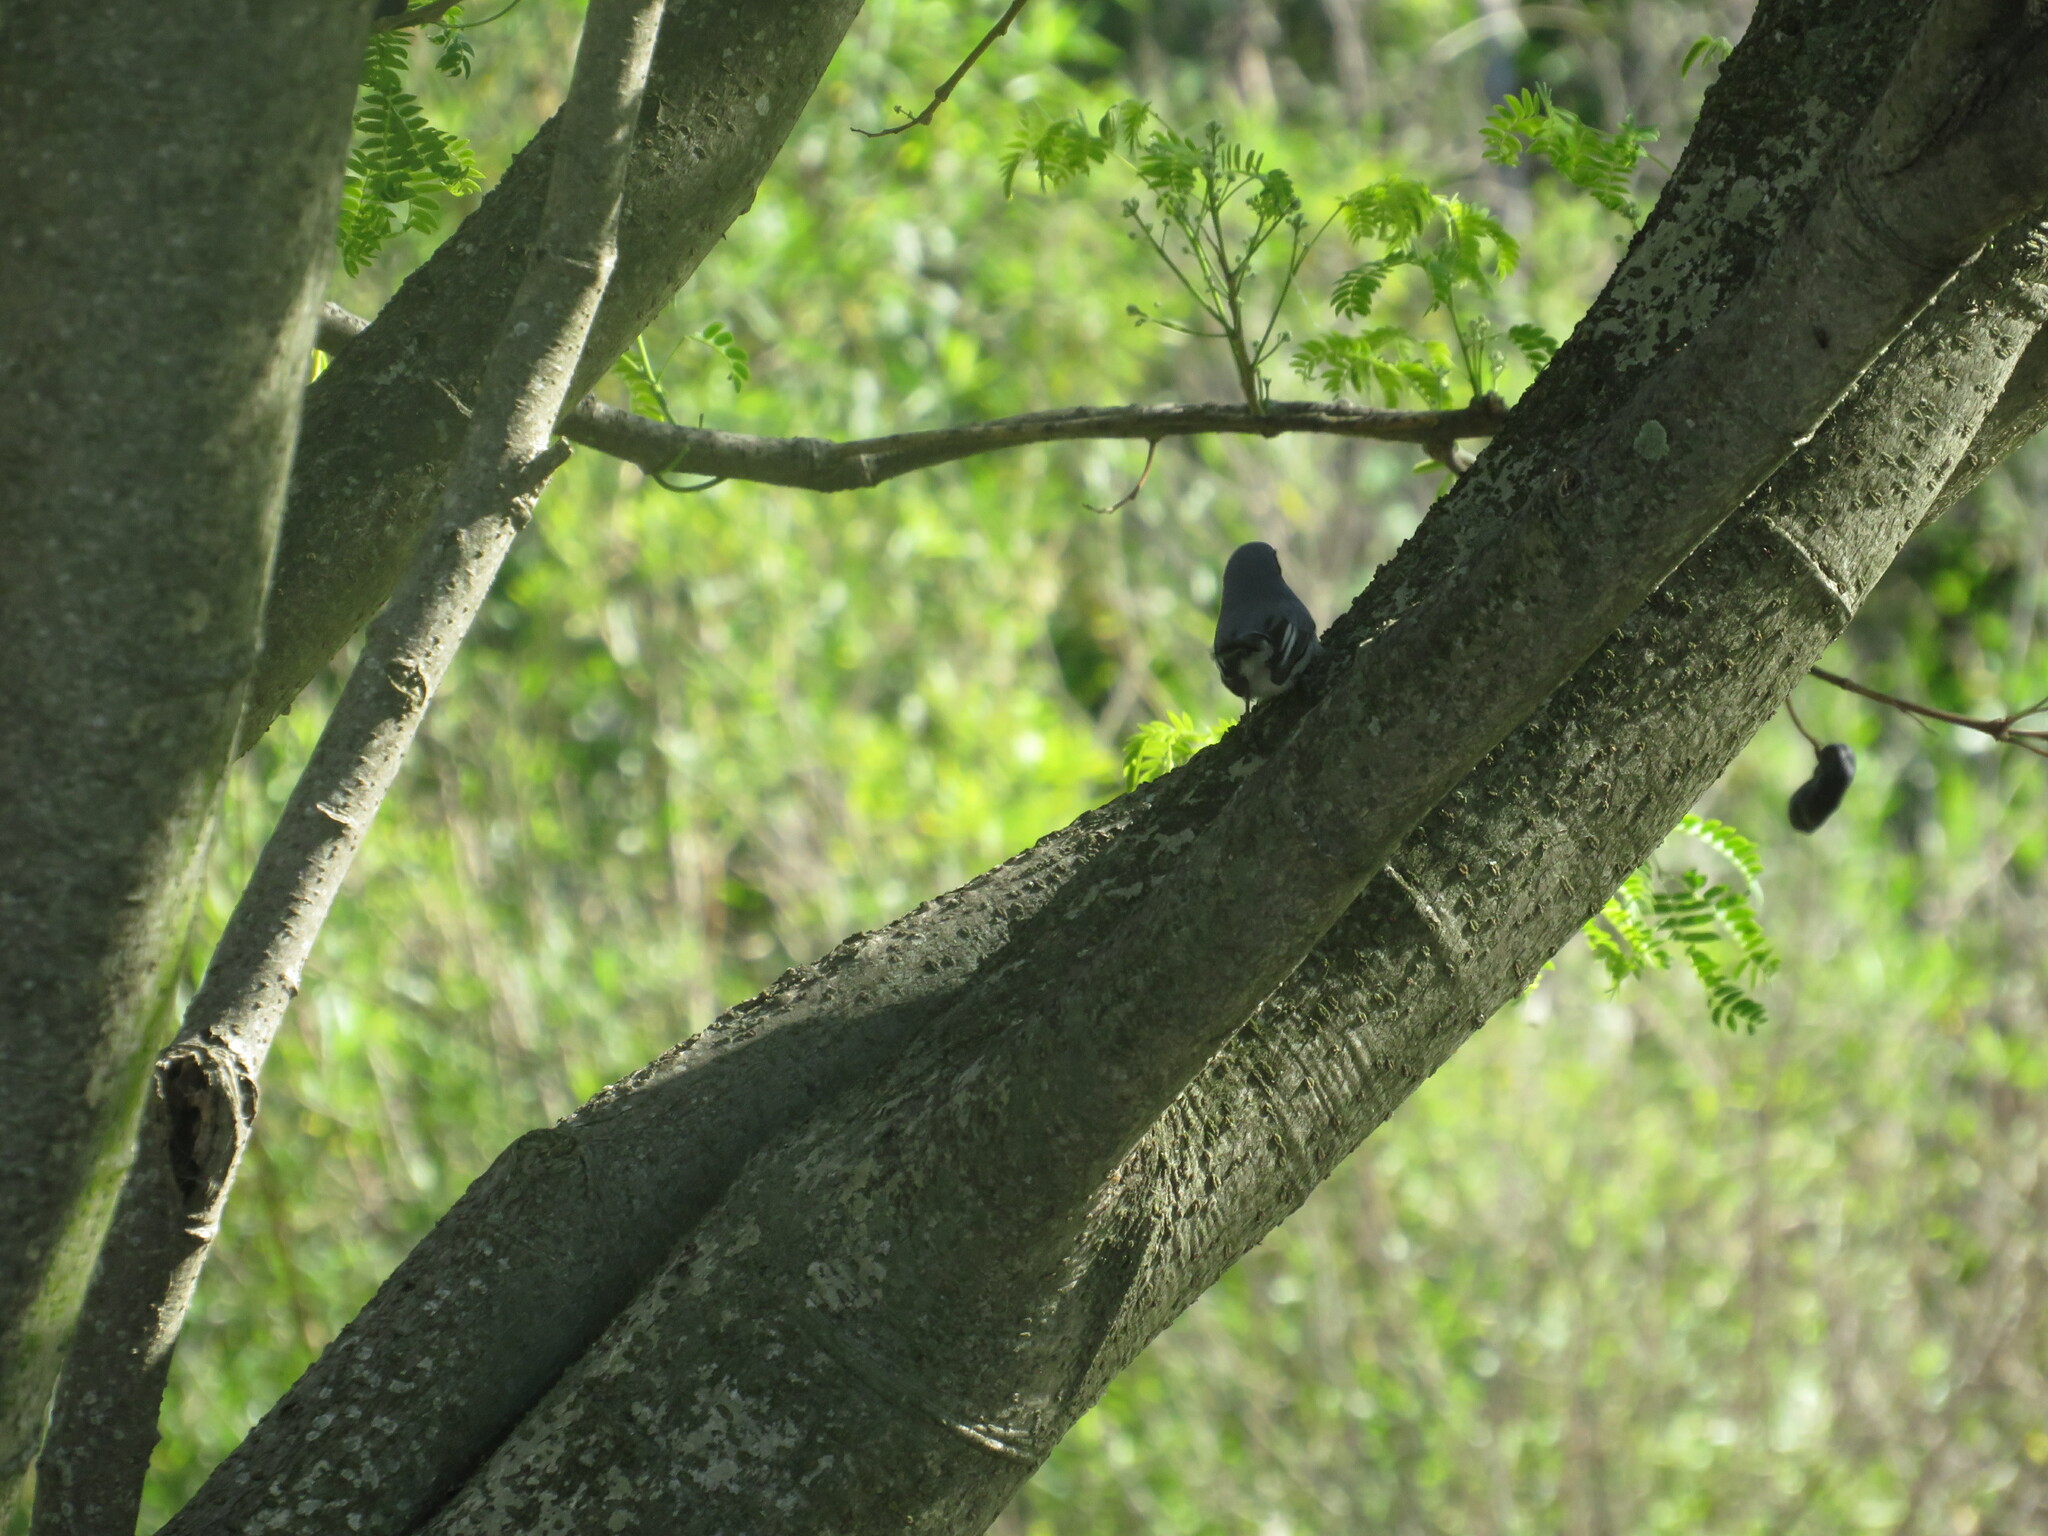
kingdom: Animalia
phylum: Chordata
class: Aves
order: Passeriformes
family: Polioptilidae
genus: Polioptila
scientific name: Polioptila dumicola
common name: Masked gnatcatcher
